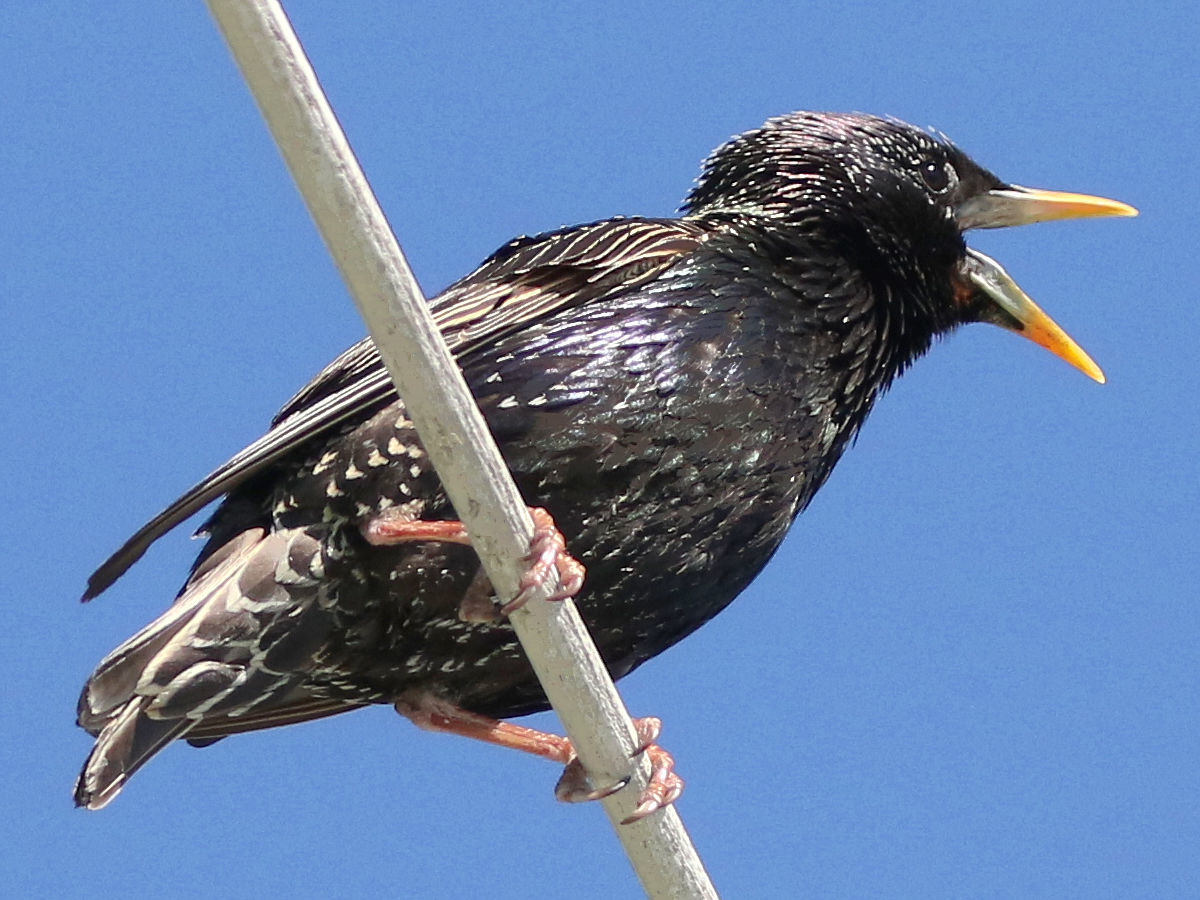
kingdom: Animalia
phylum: Chordata
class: Aves
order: Passeriformes
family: Sturnidae
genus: Sturnus
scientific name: Sturnus vulgaris
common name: Common starling
